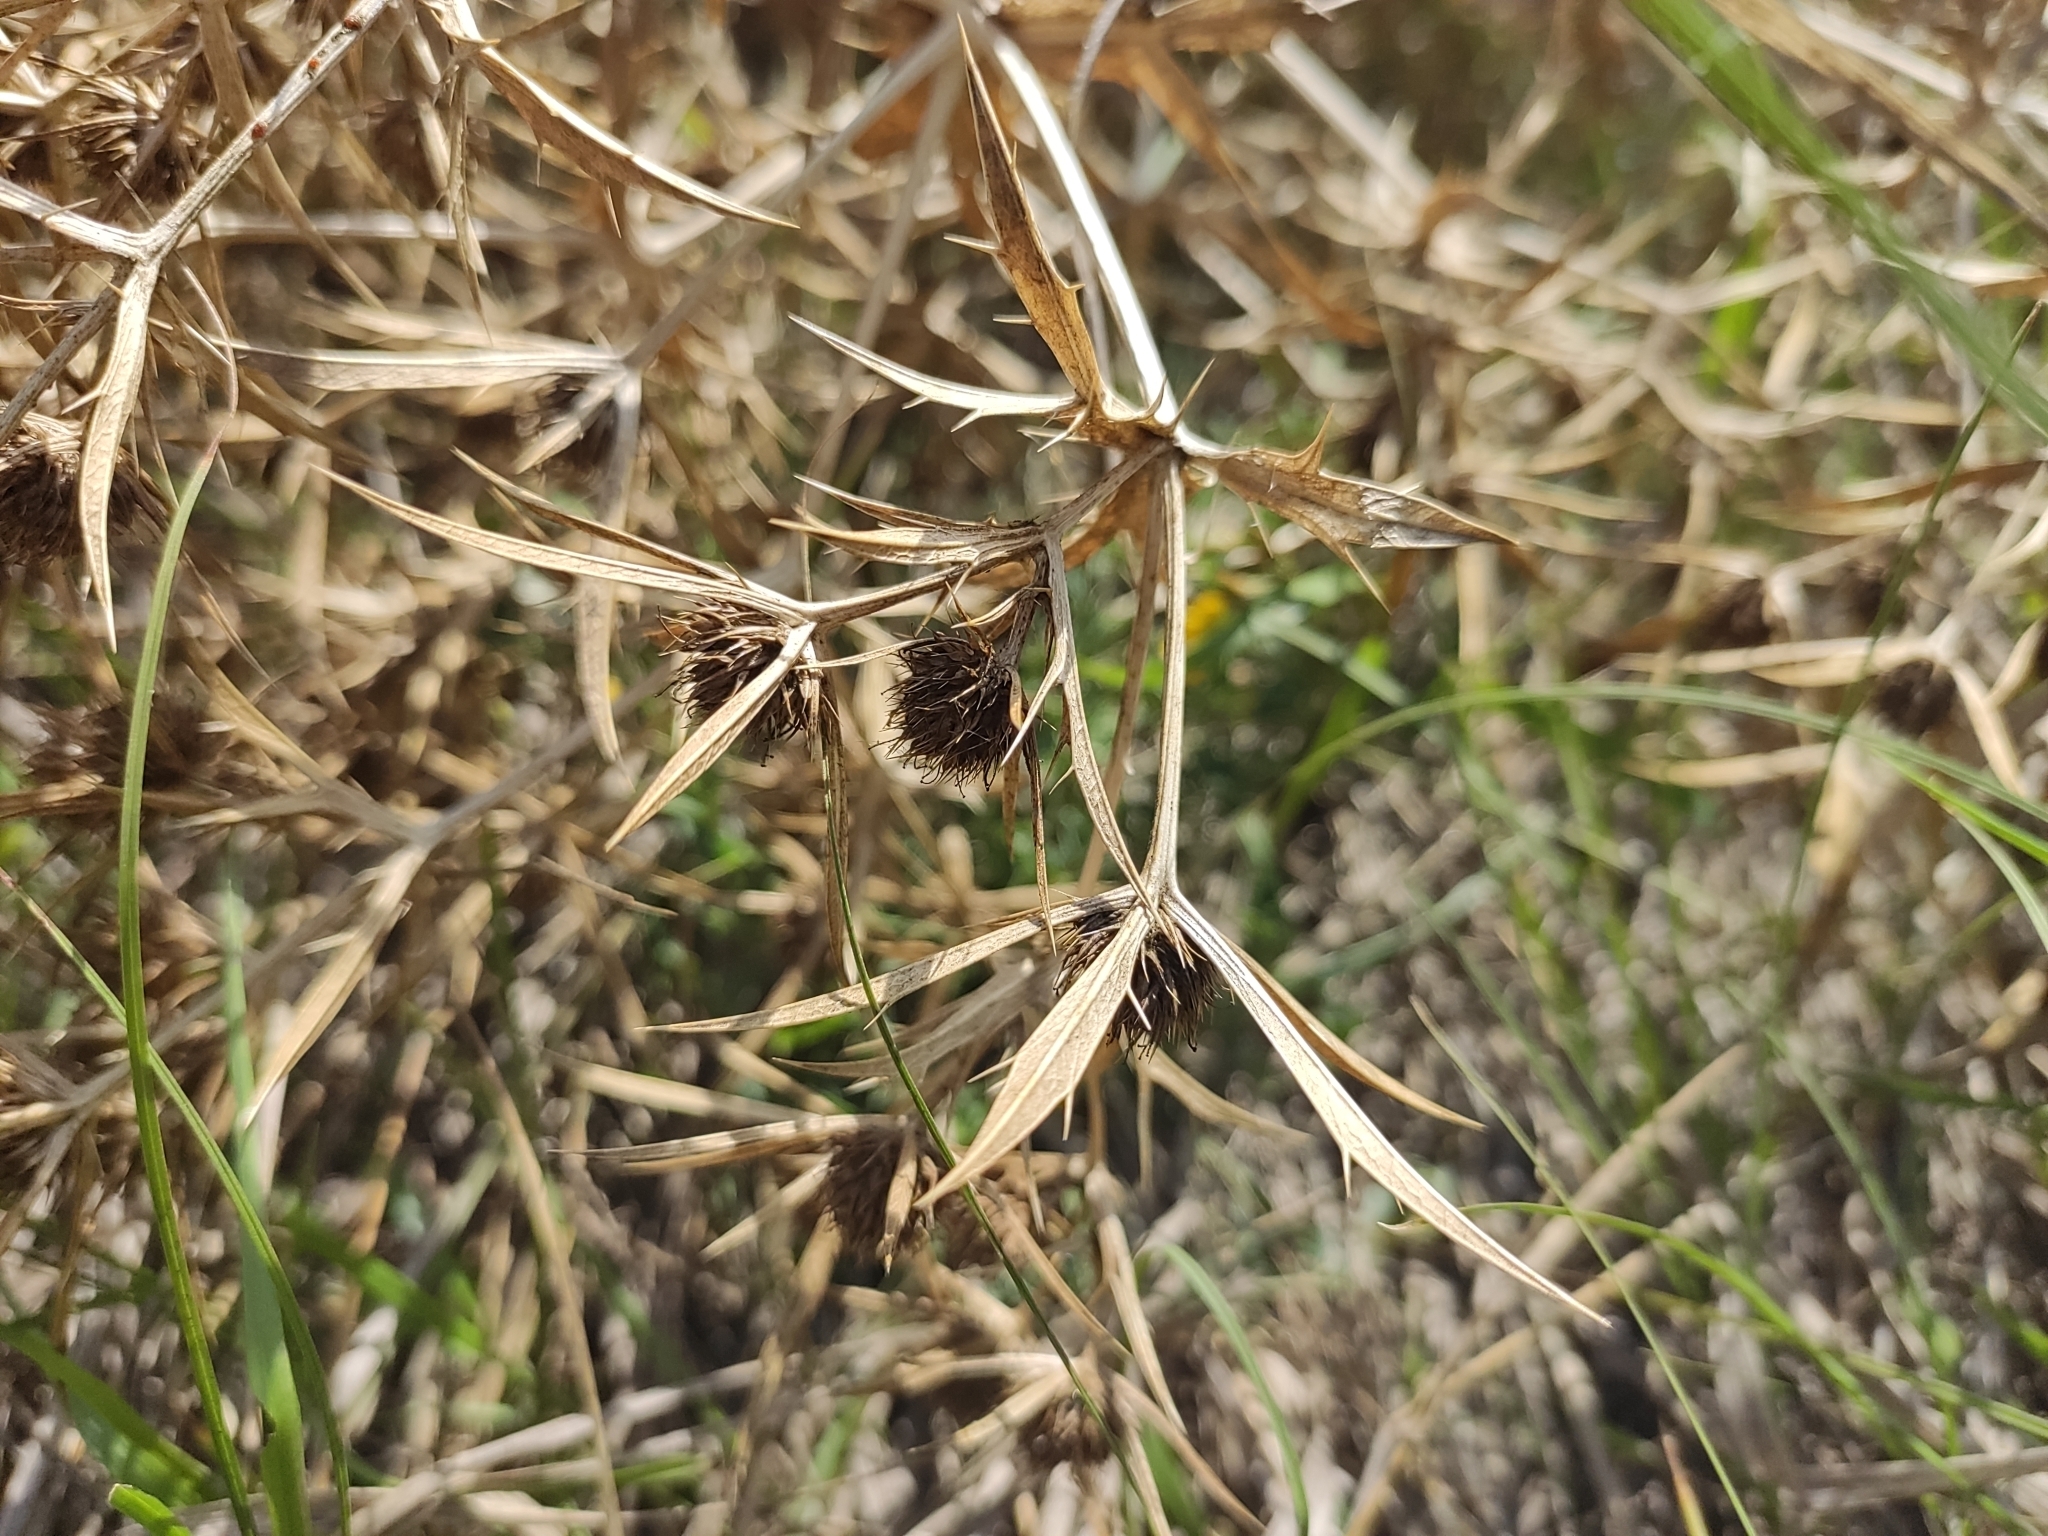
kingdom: Plantae
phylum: Tracheophyta
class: Magnoliopsida
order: Apiales
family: Apiaceae
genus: Eryngium
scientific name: Eryngium campestre
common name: Field eryngo
